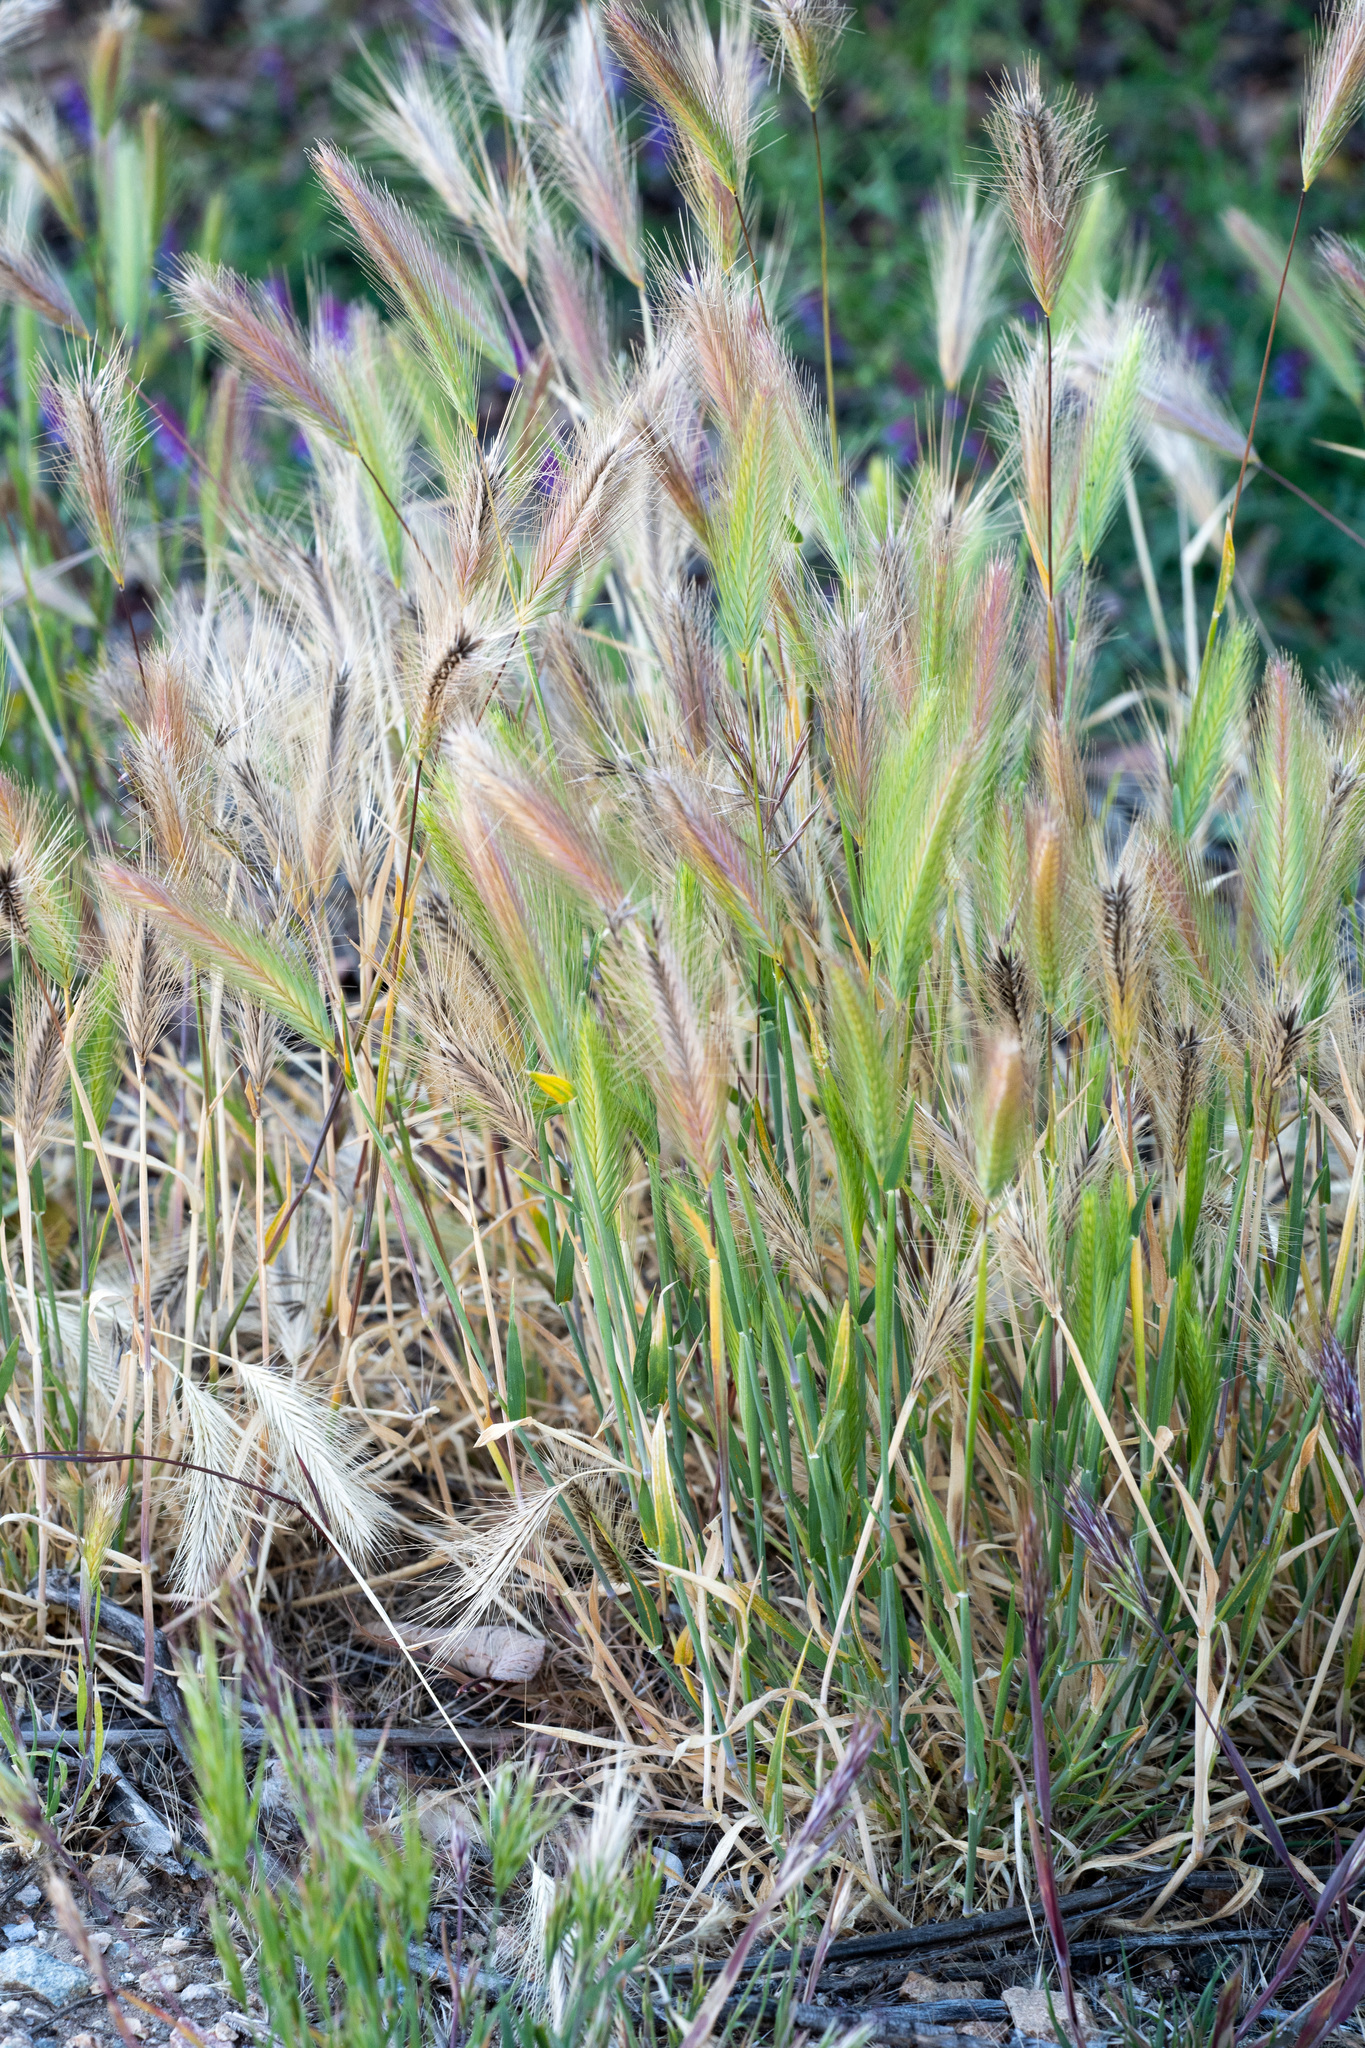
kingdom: Plantae
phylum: Tracheophyta
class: Liliopsida
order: Poales
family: Poaceae
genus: Hordeum
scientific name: Hordeum murinum
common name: Wall barley
